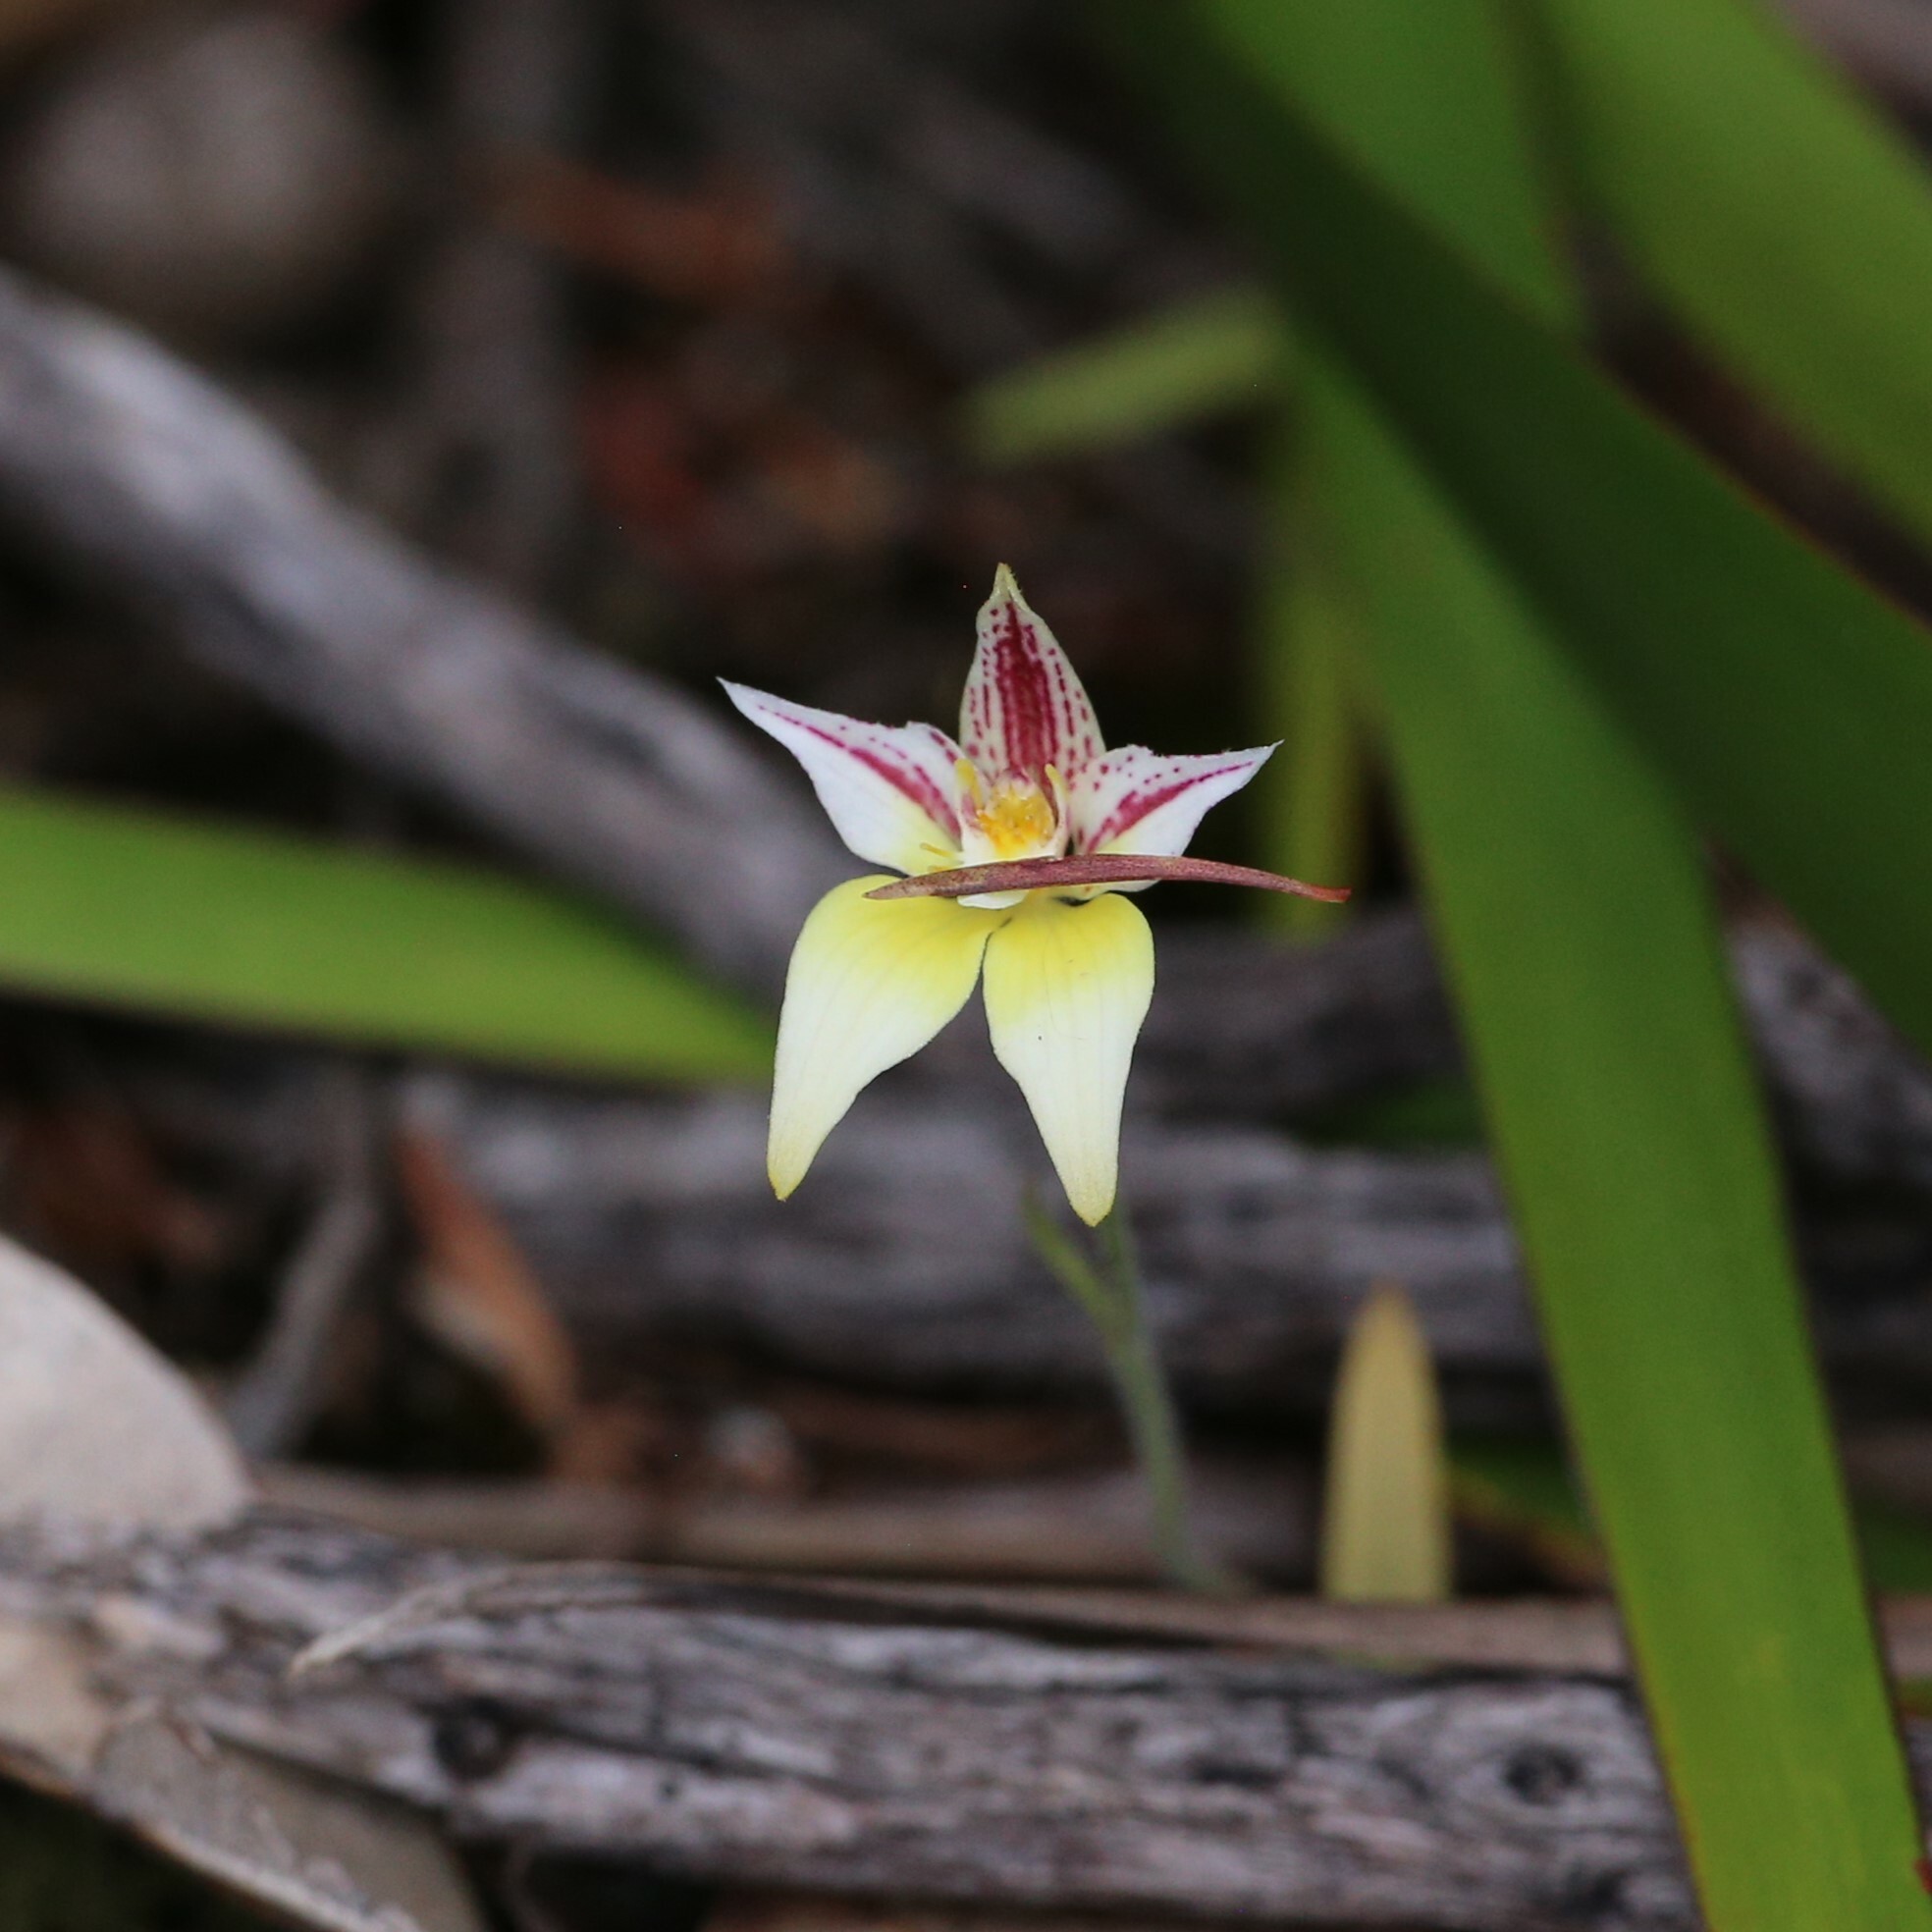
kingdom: Plantae
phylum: Tracheophyta
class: Liliopsida
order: Asparagales
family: Orchidaceae
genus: Caladenia
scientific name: Caladenia flava
